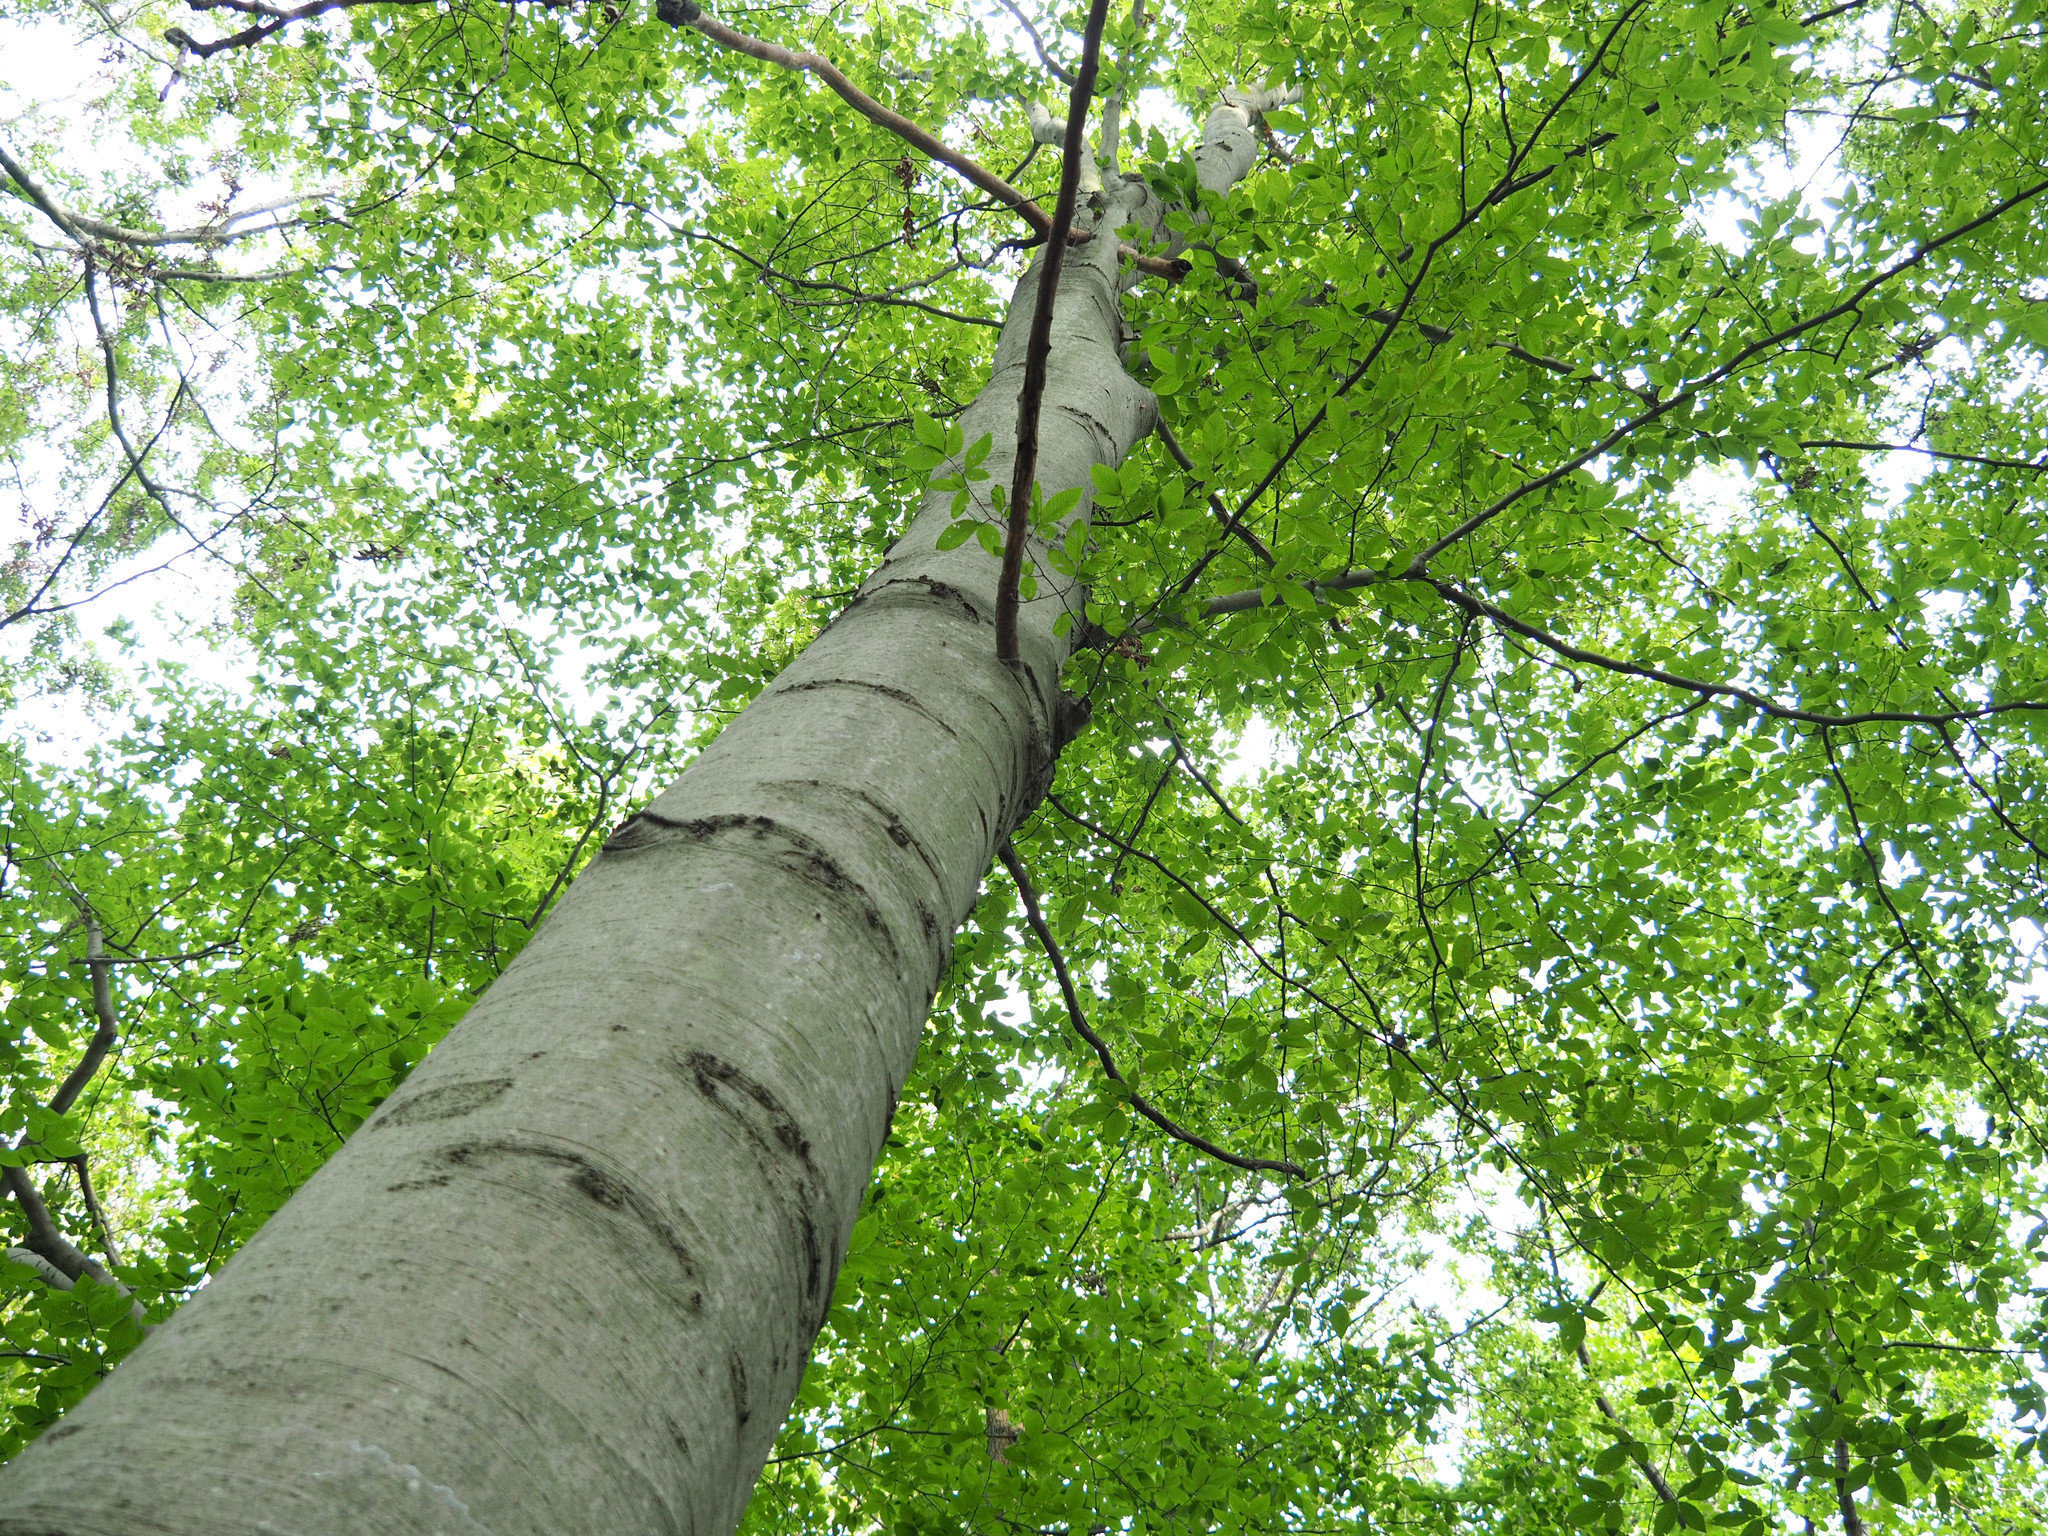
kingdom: Plantae
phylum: Tracheophyta
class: Magnoliopsida
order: Fagales
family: Fagaceae
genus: Fagus
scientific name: Fagus grandifolia
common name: American beech
